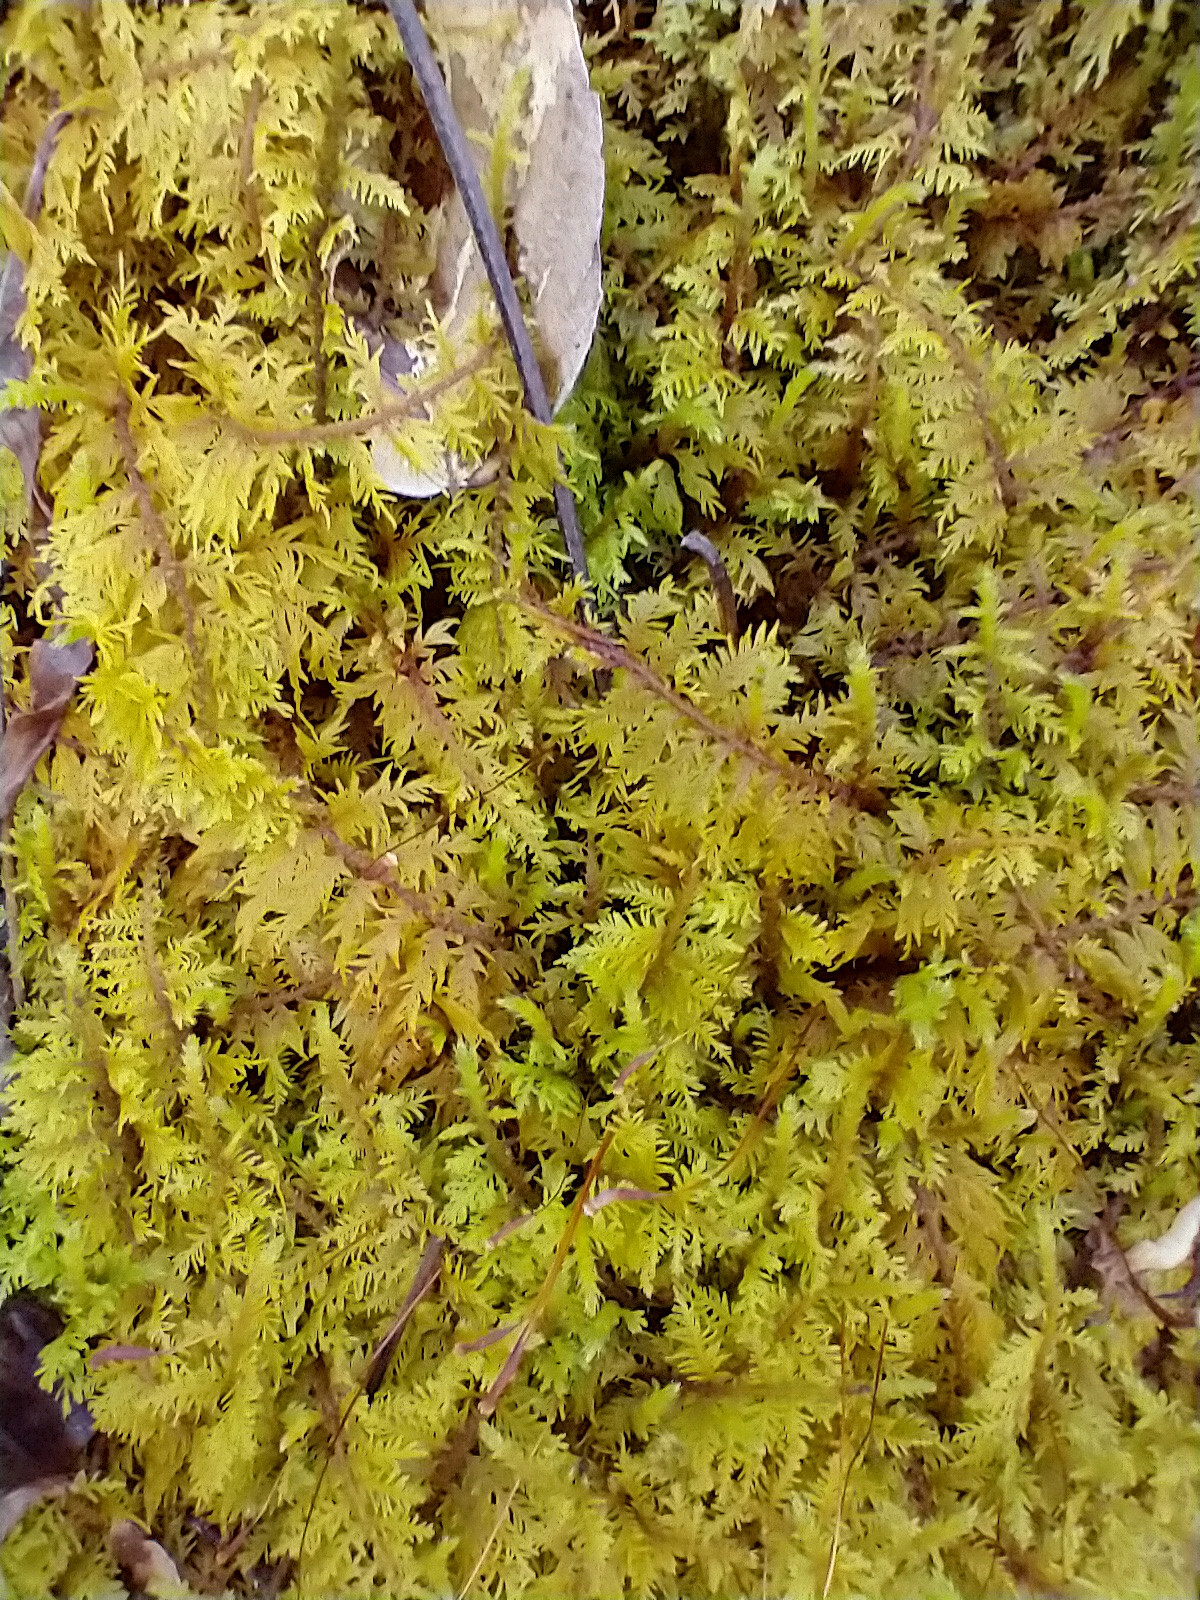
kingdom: Plantae
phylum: Bryophyta
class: Bryopsida
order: Hypnales
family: Thuidiaceae
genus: Thuidium
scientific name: Thuidium delicatulum
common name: Delicate fern moss
